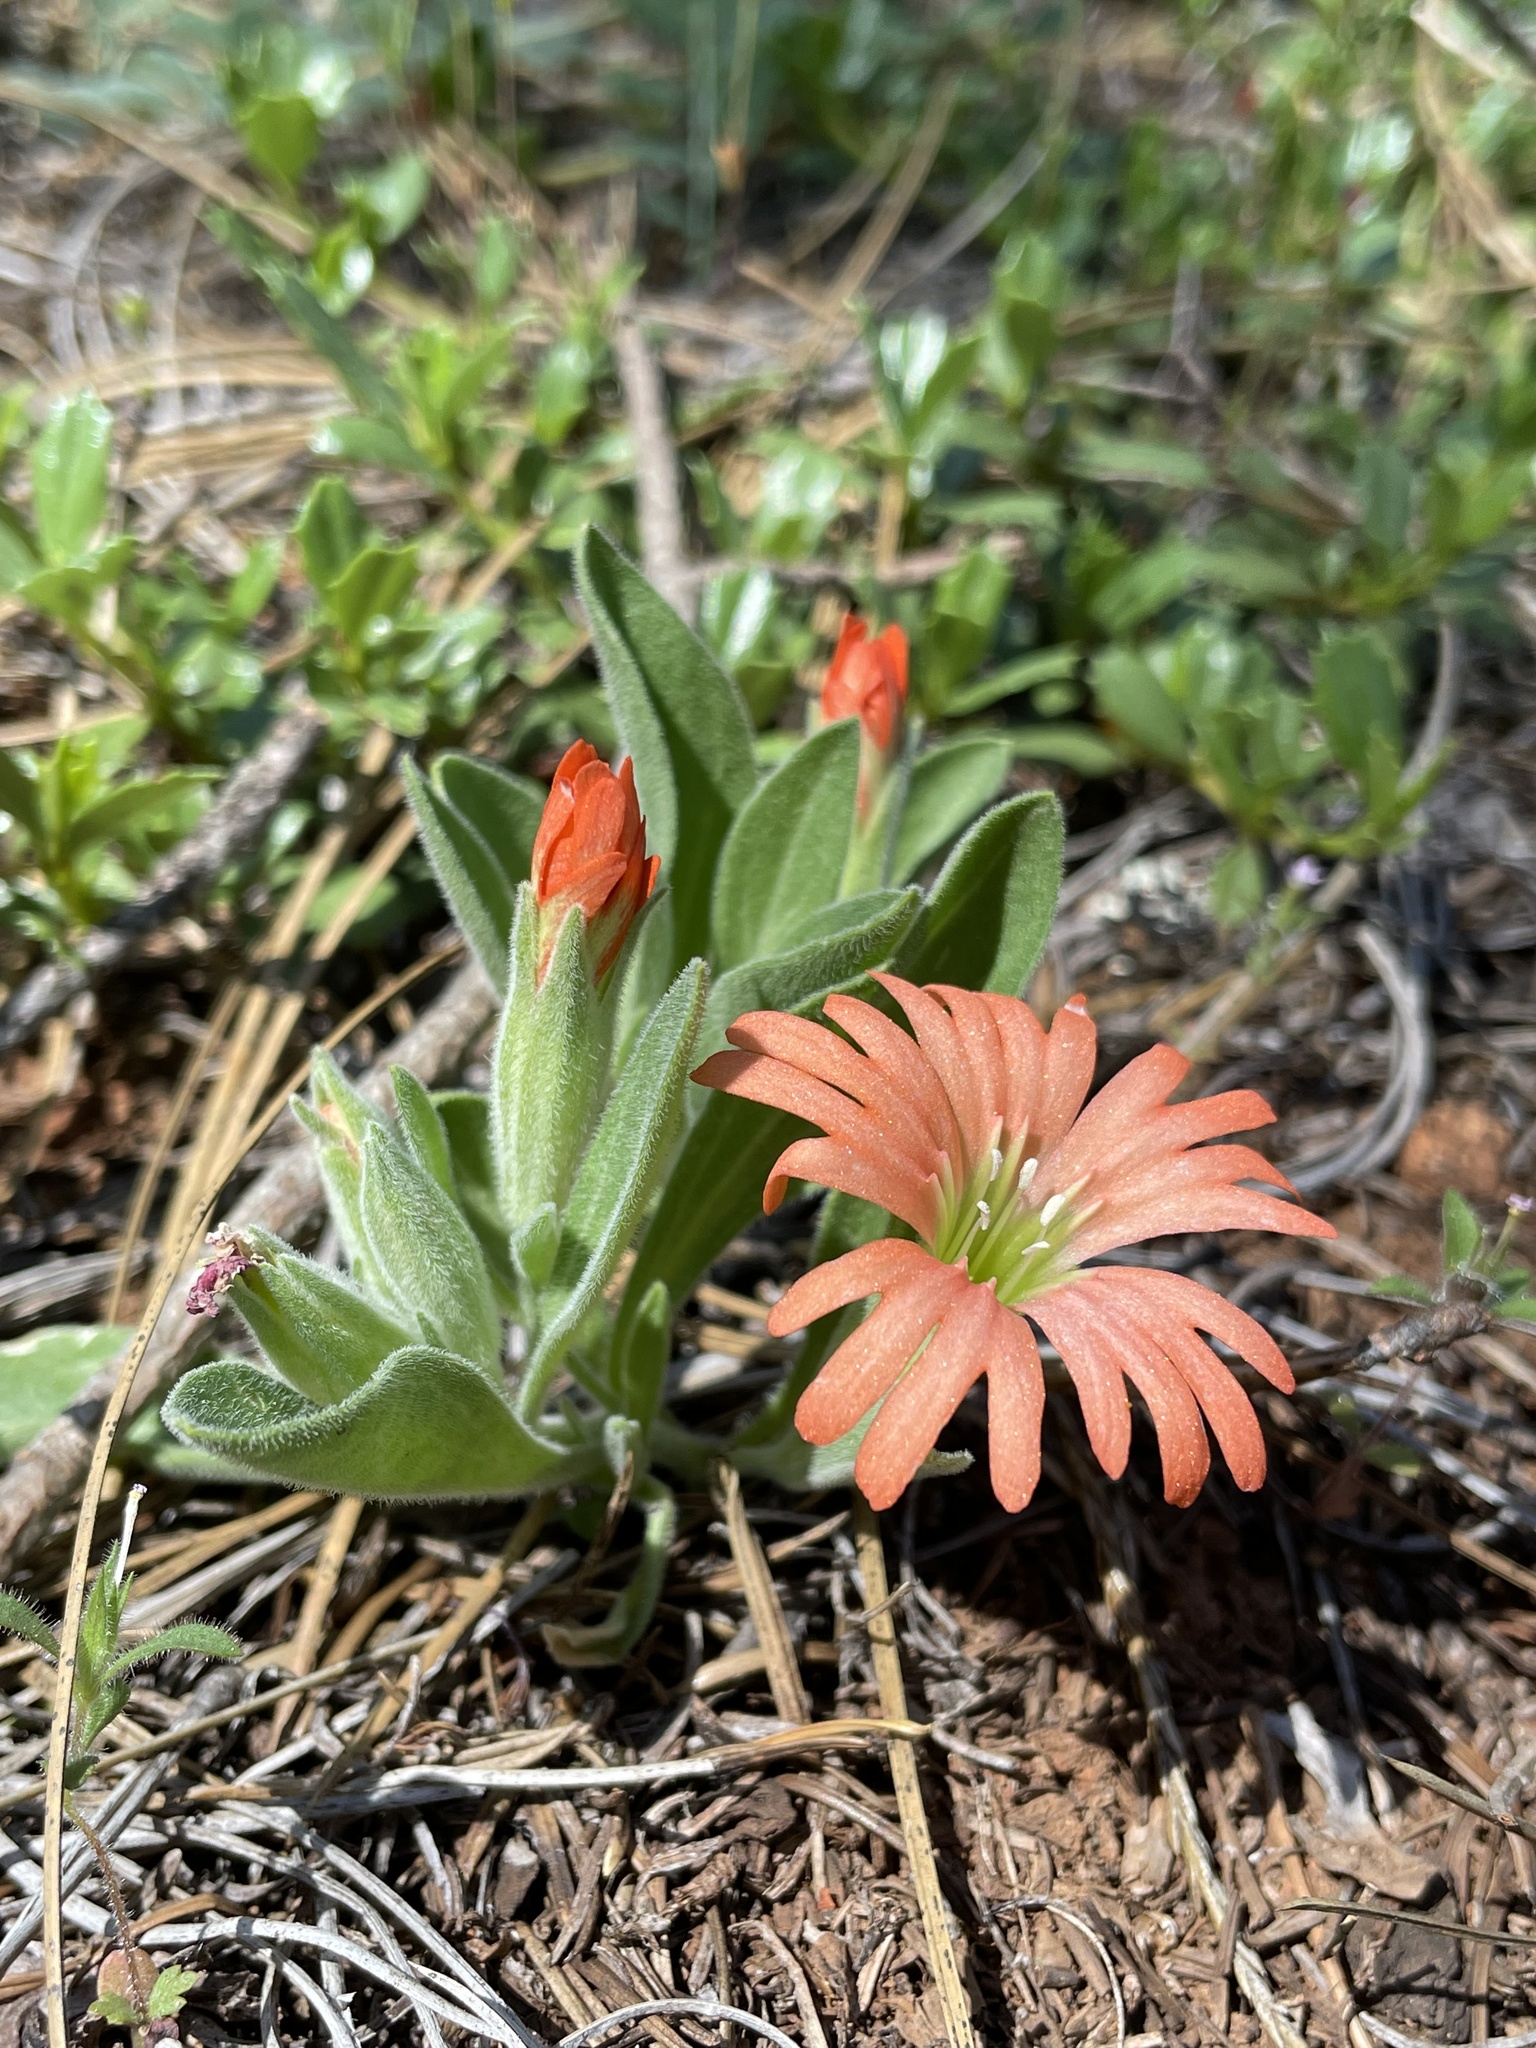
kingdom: Plantae
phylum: Tracheophyta
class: Magnoliopsida
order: Caryophyllales
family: Caryophyllaceae
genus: Silene
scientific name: Silene salmonacea
